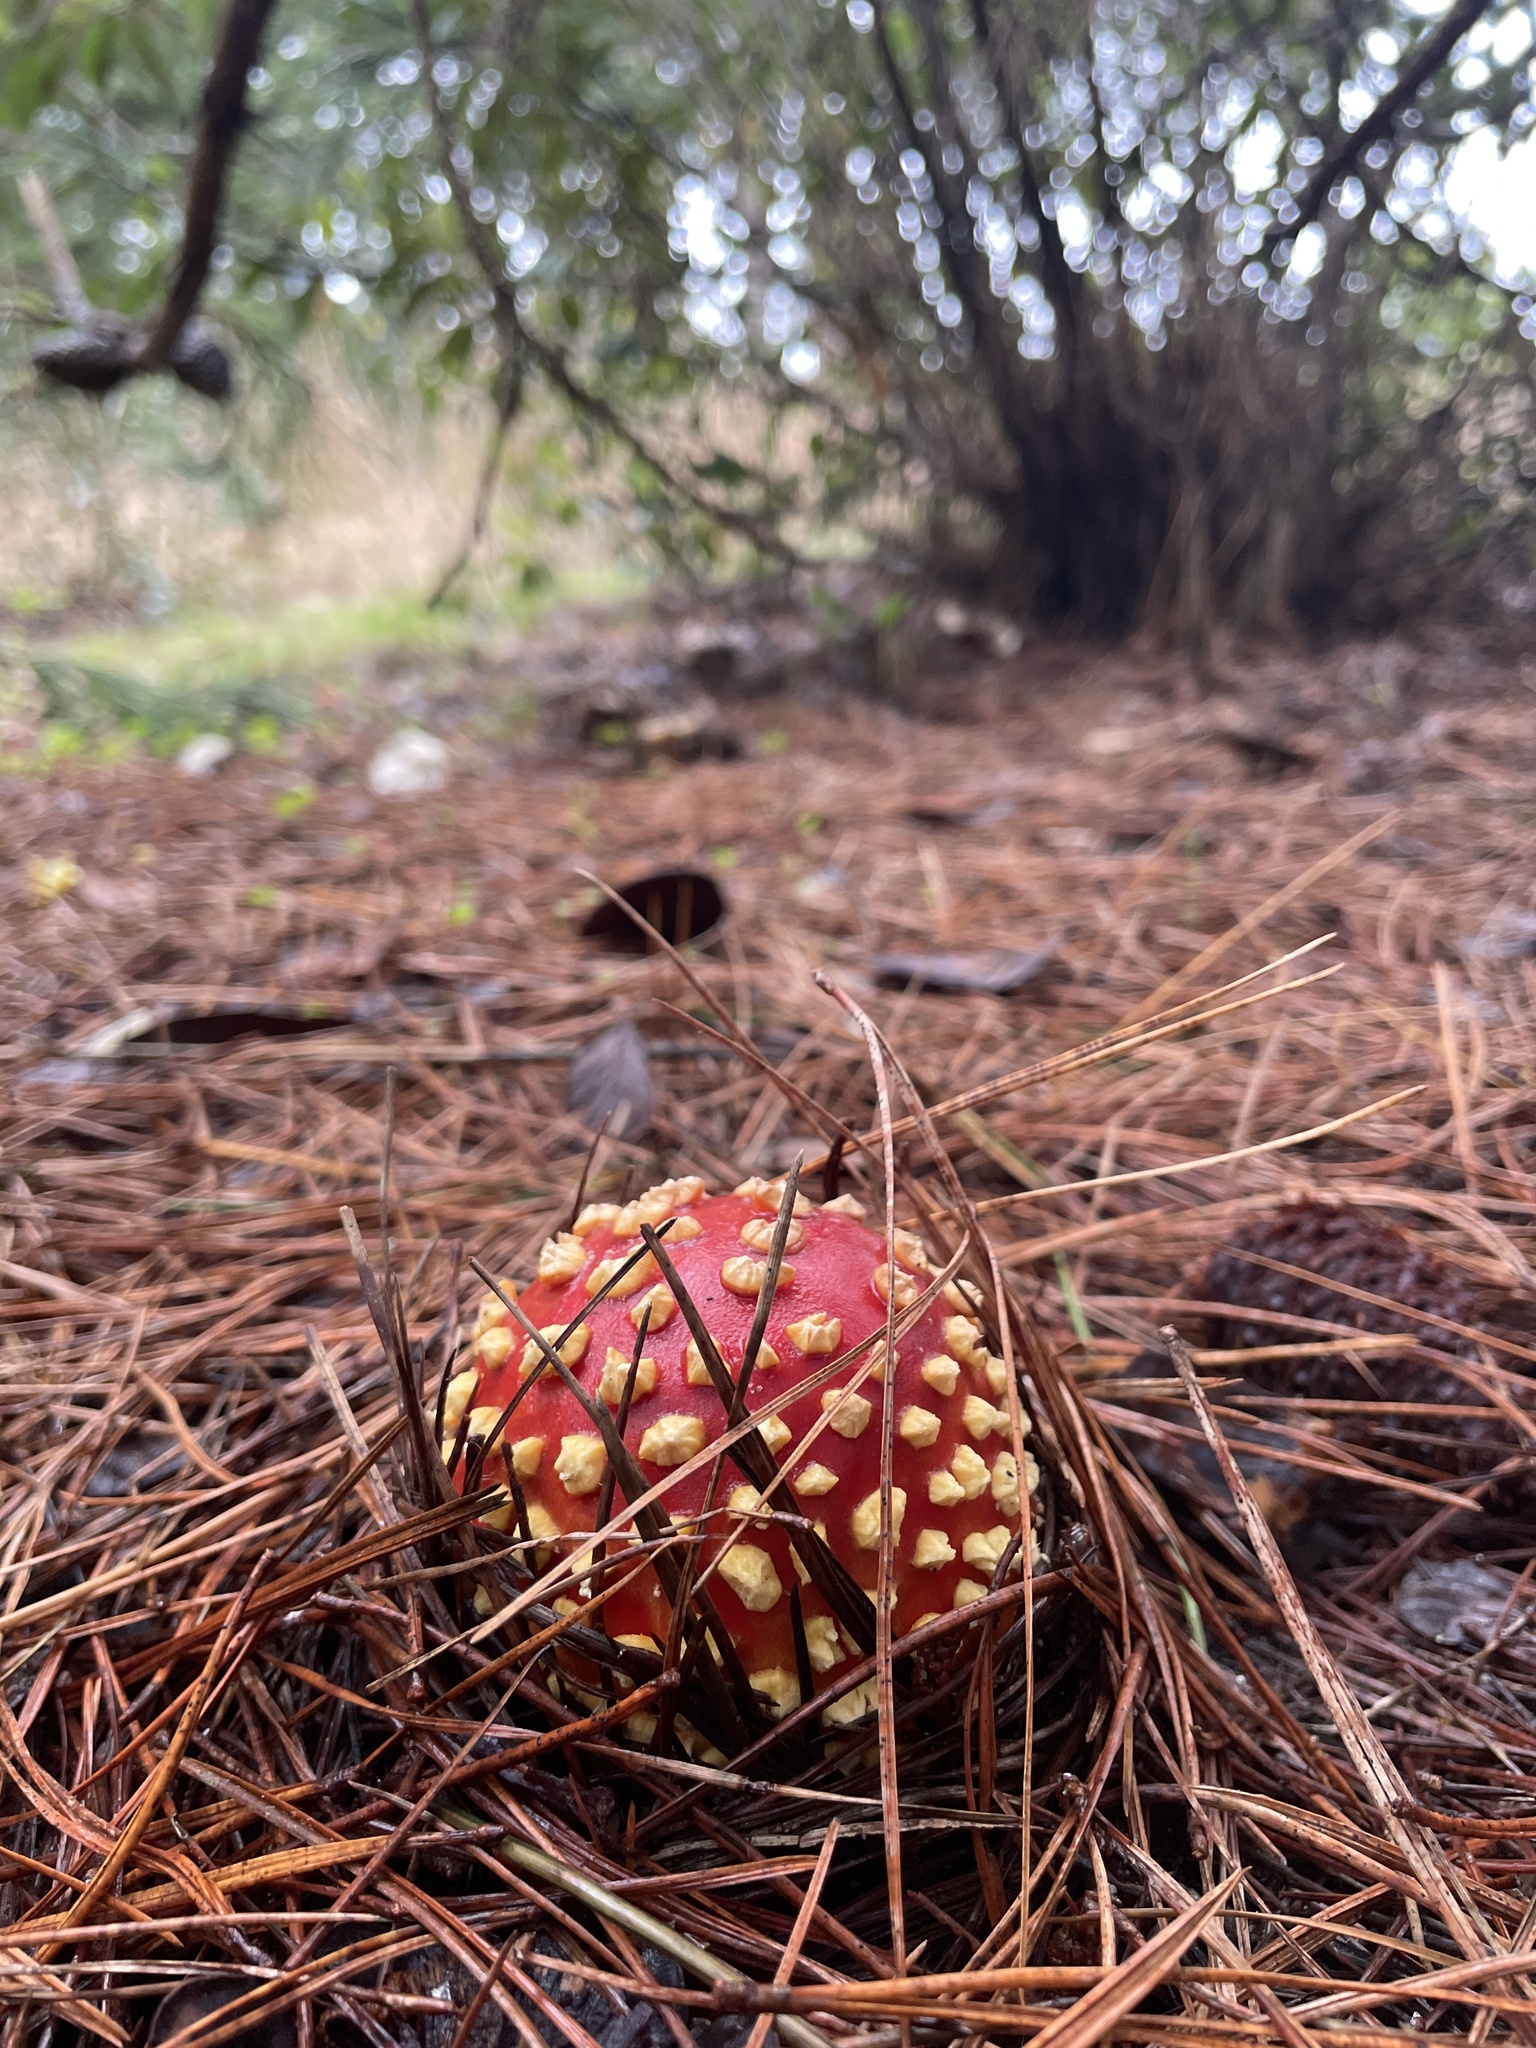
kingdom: Fungi
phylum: Basidiomycota
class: Agaricomycetes
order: Agaricales
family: Amanitaceae
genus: Amanita
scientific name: Amanita muscaria
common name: Fly agaric
